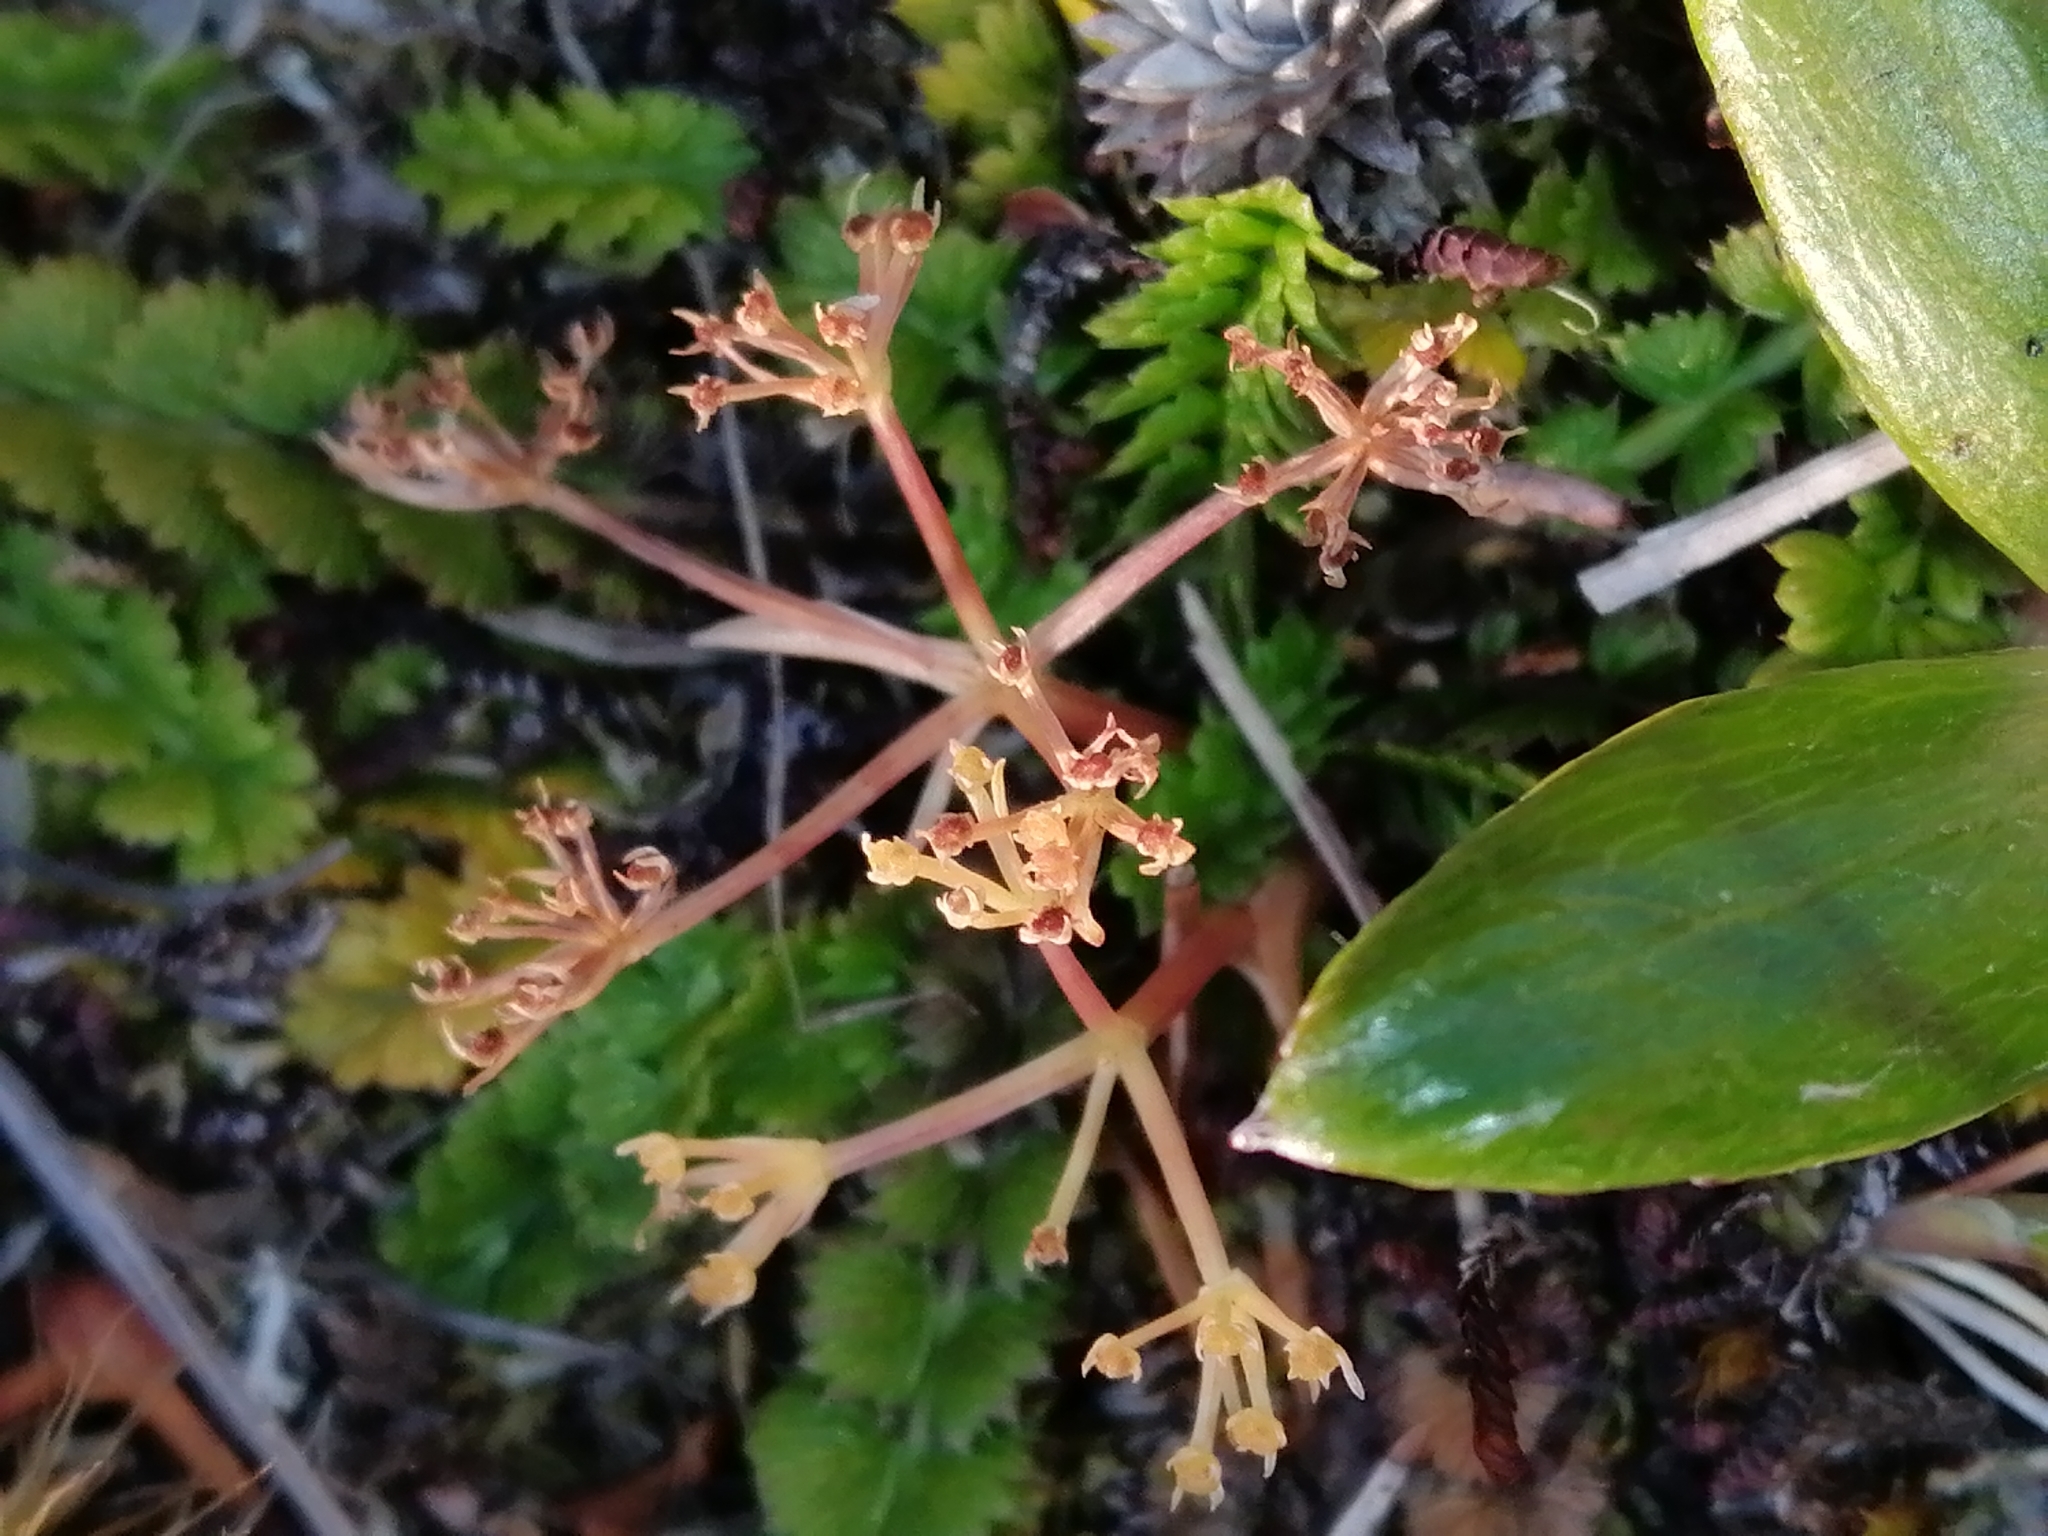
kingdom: Plantae
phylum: Tracheophyta
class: Magnoliopsida
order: Apiales
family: Apiaceae
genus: Anisotome
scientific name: Anisotome aromatica
